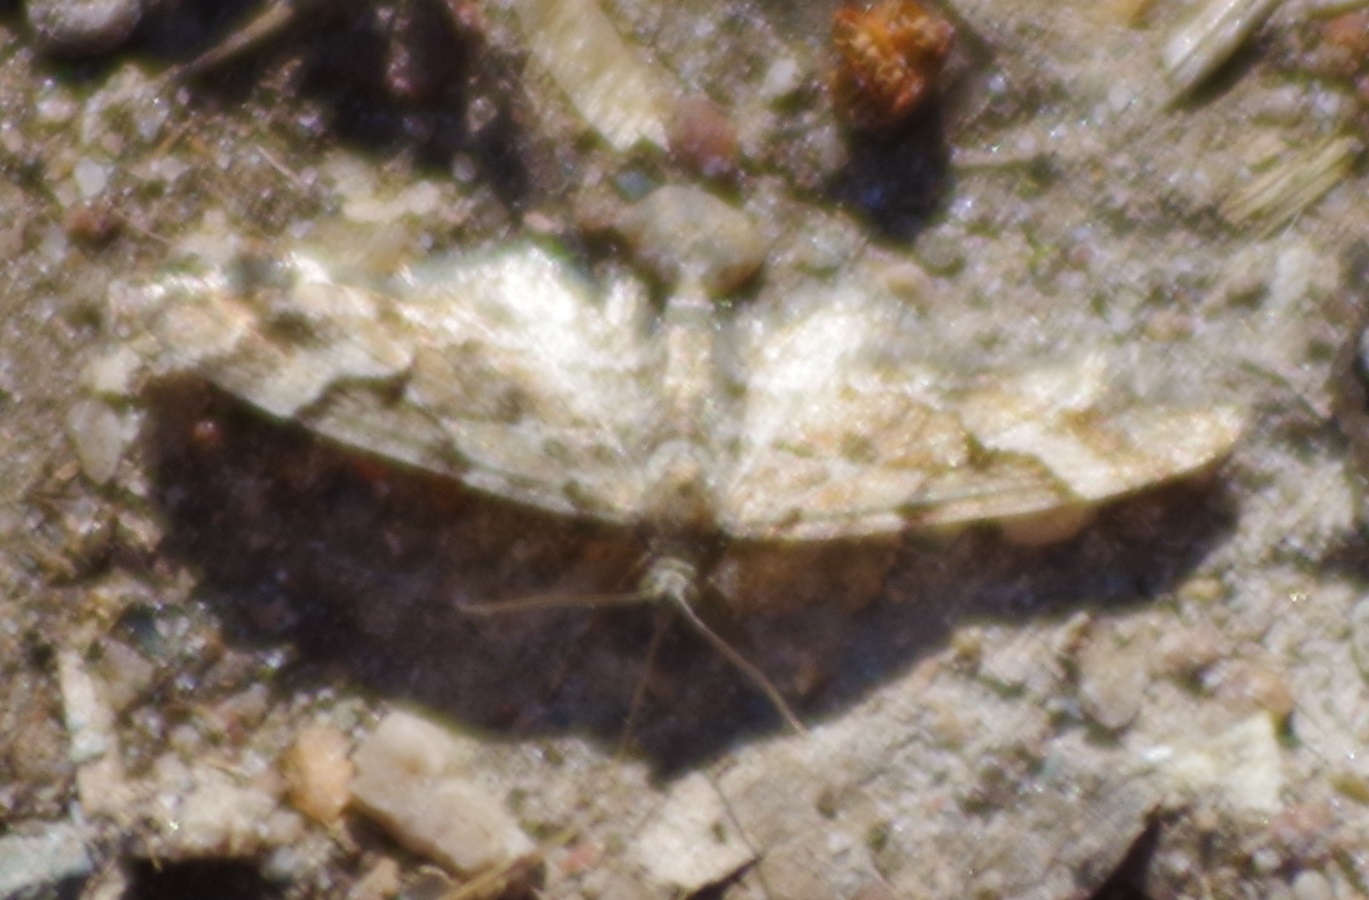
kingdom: Animalia
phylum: Arthropoda
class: Insecta
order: Lepidoptera
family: Geometridae
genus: Eupithecia
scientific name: Eupithecia lanceata
